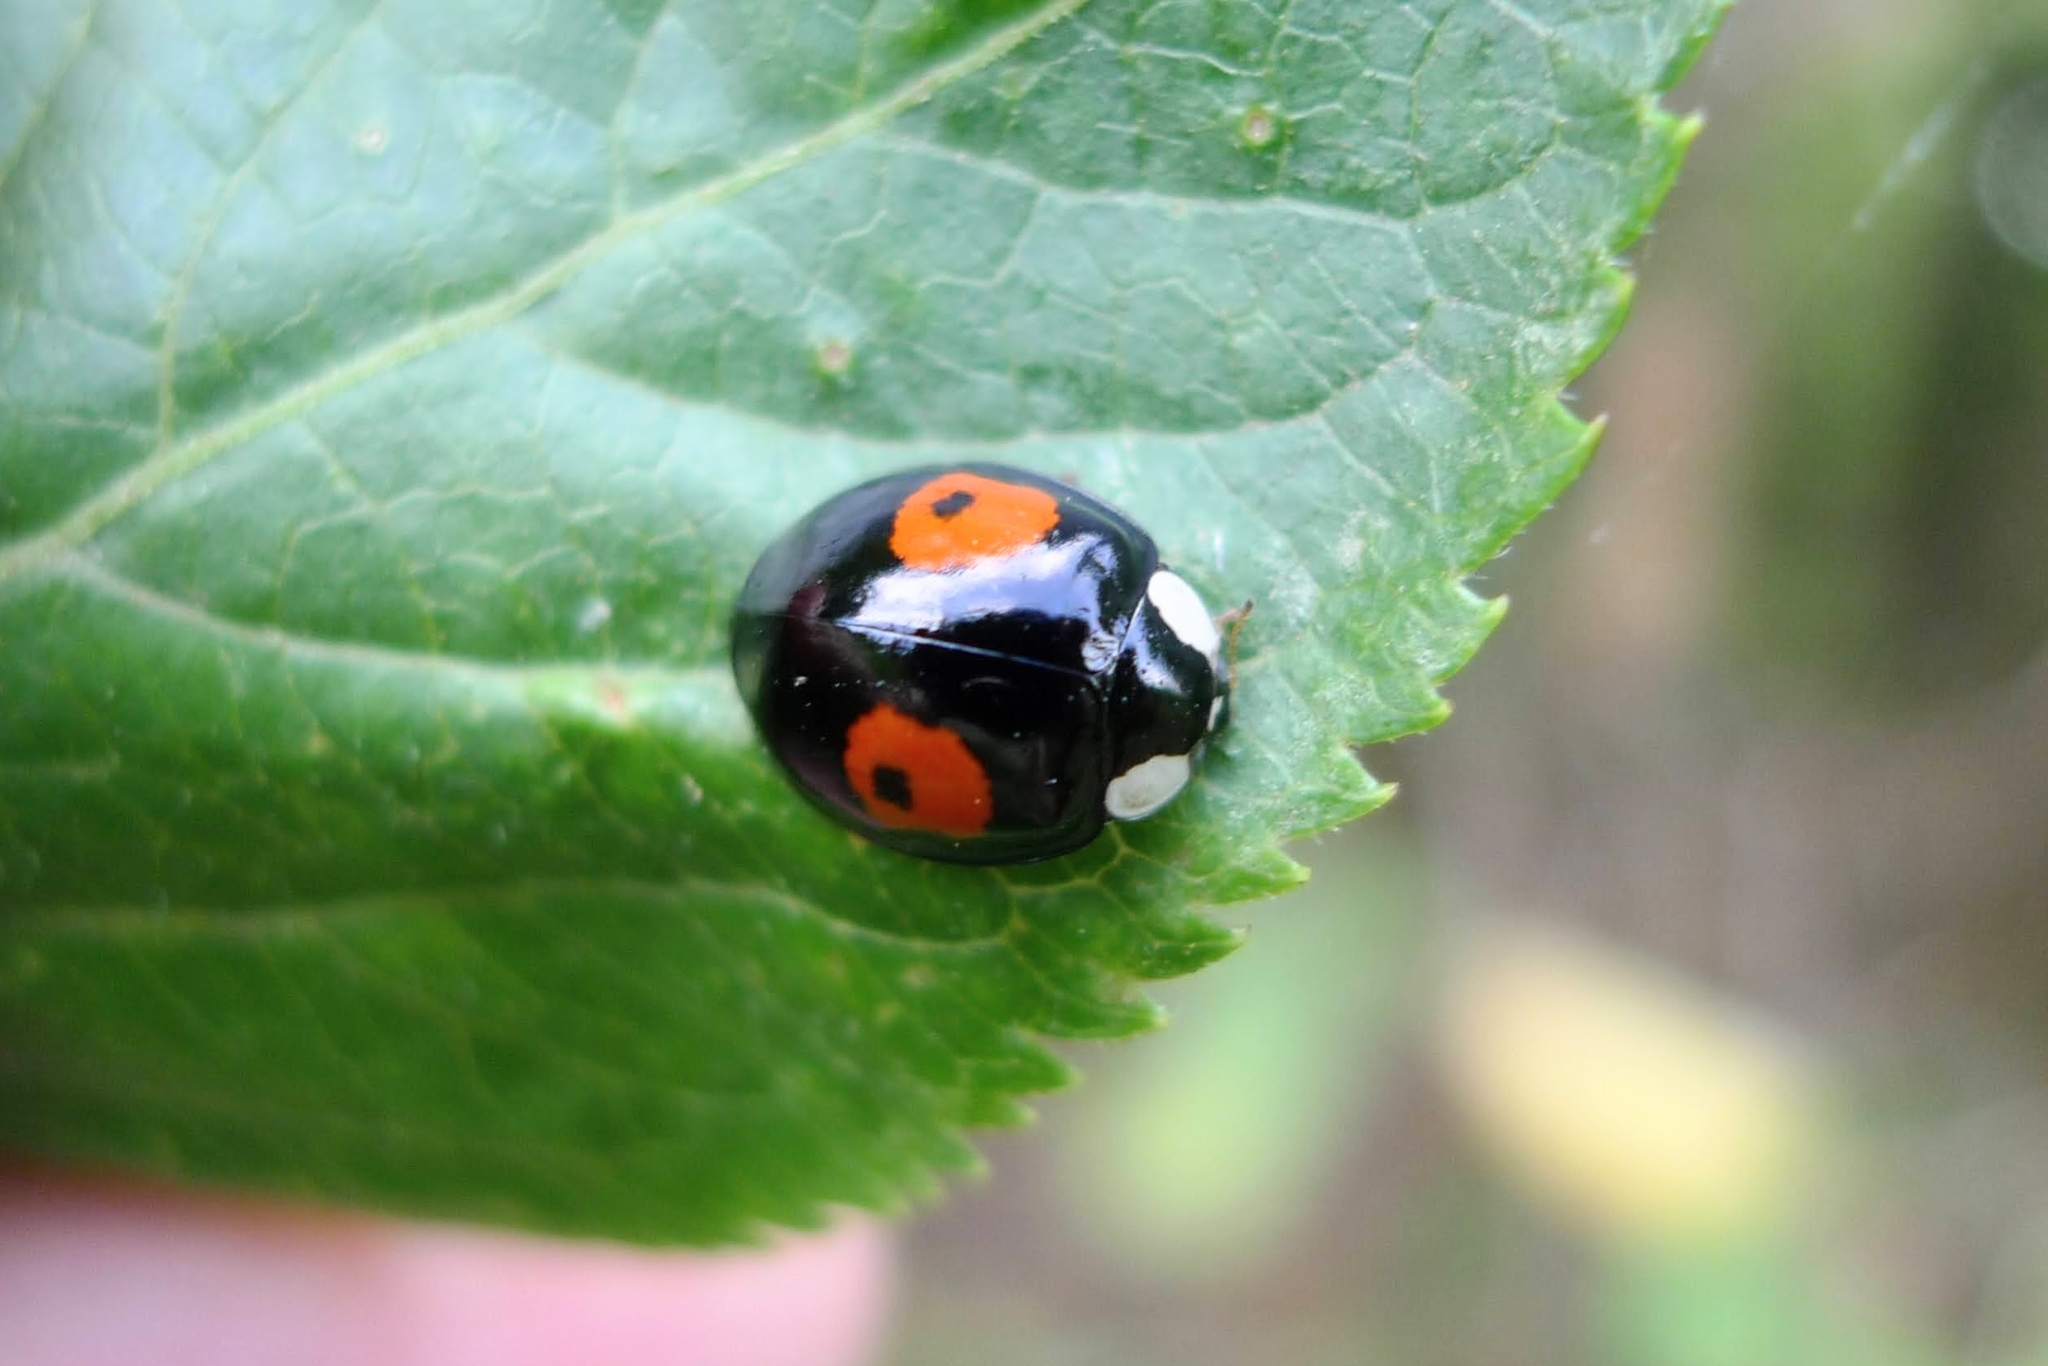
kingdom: Animalia
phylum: Arthropoda
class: Insecta
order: Coleoptera
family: Coccinellidae
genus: Harmonia
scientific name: Harmonia axyridis
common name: Harlequin ladybird
